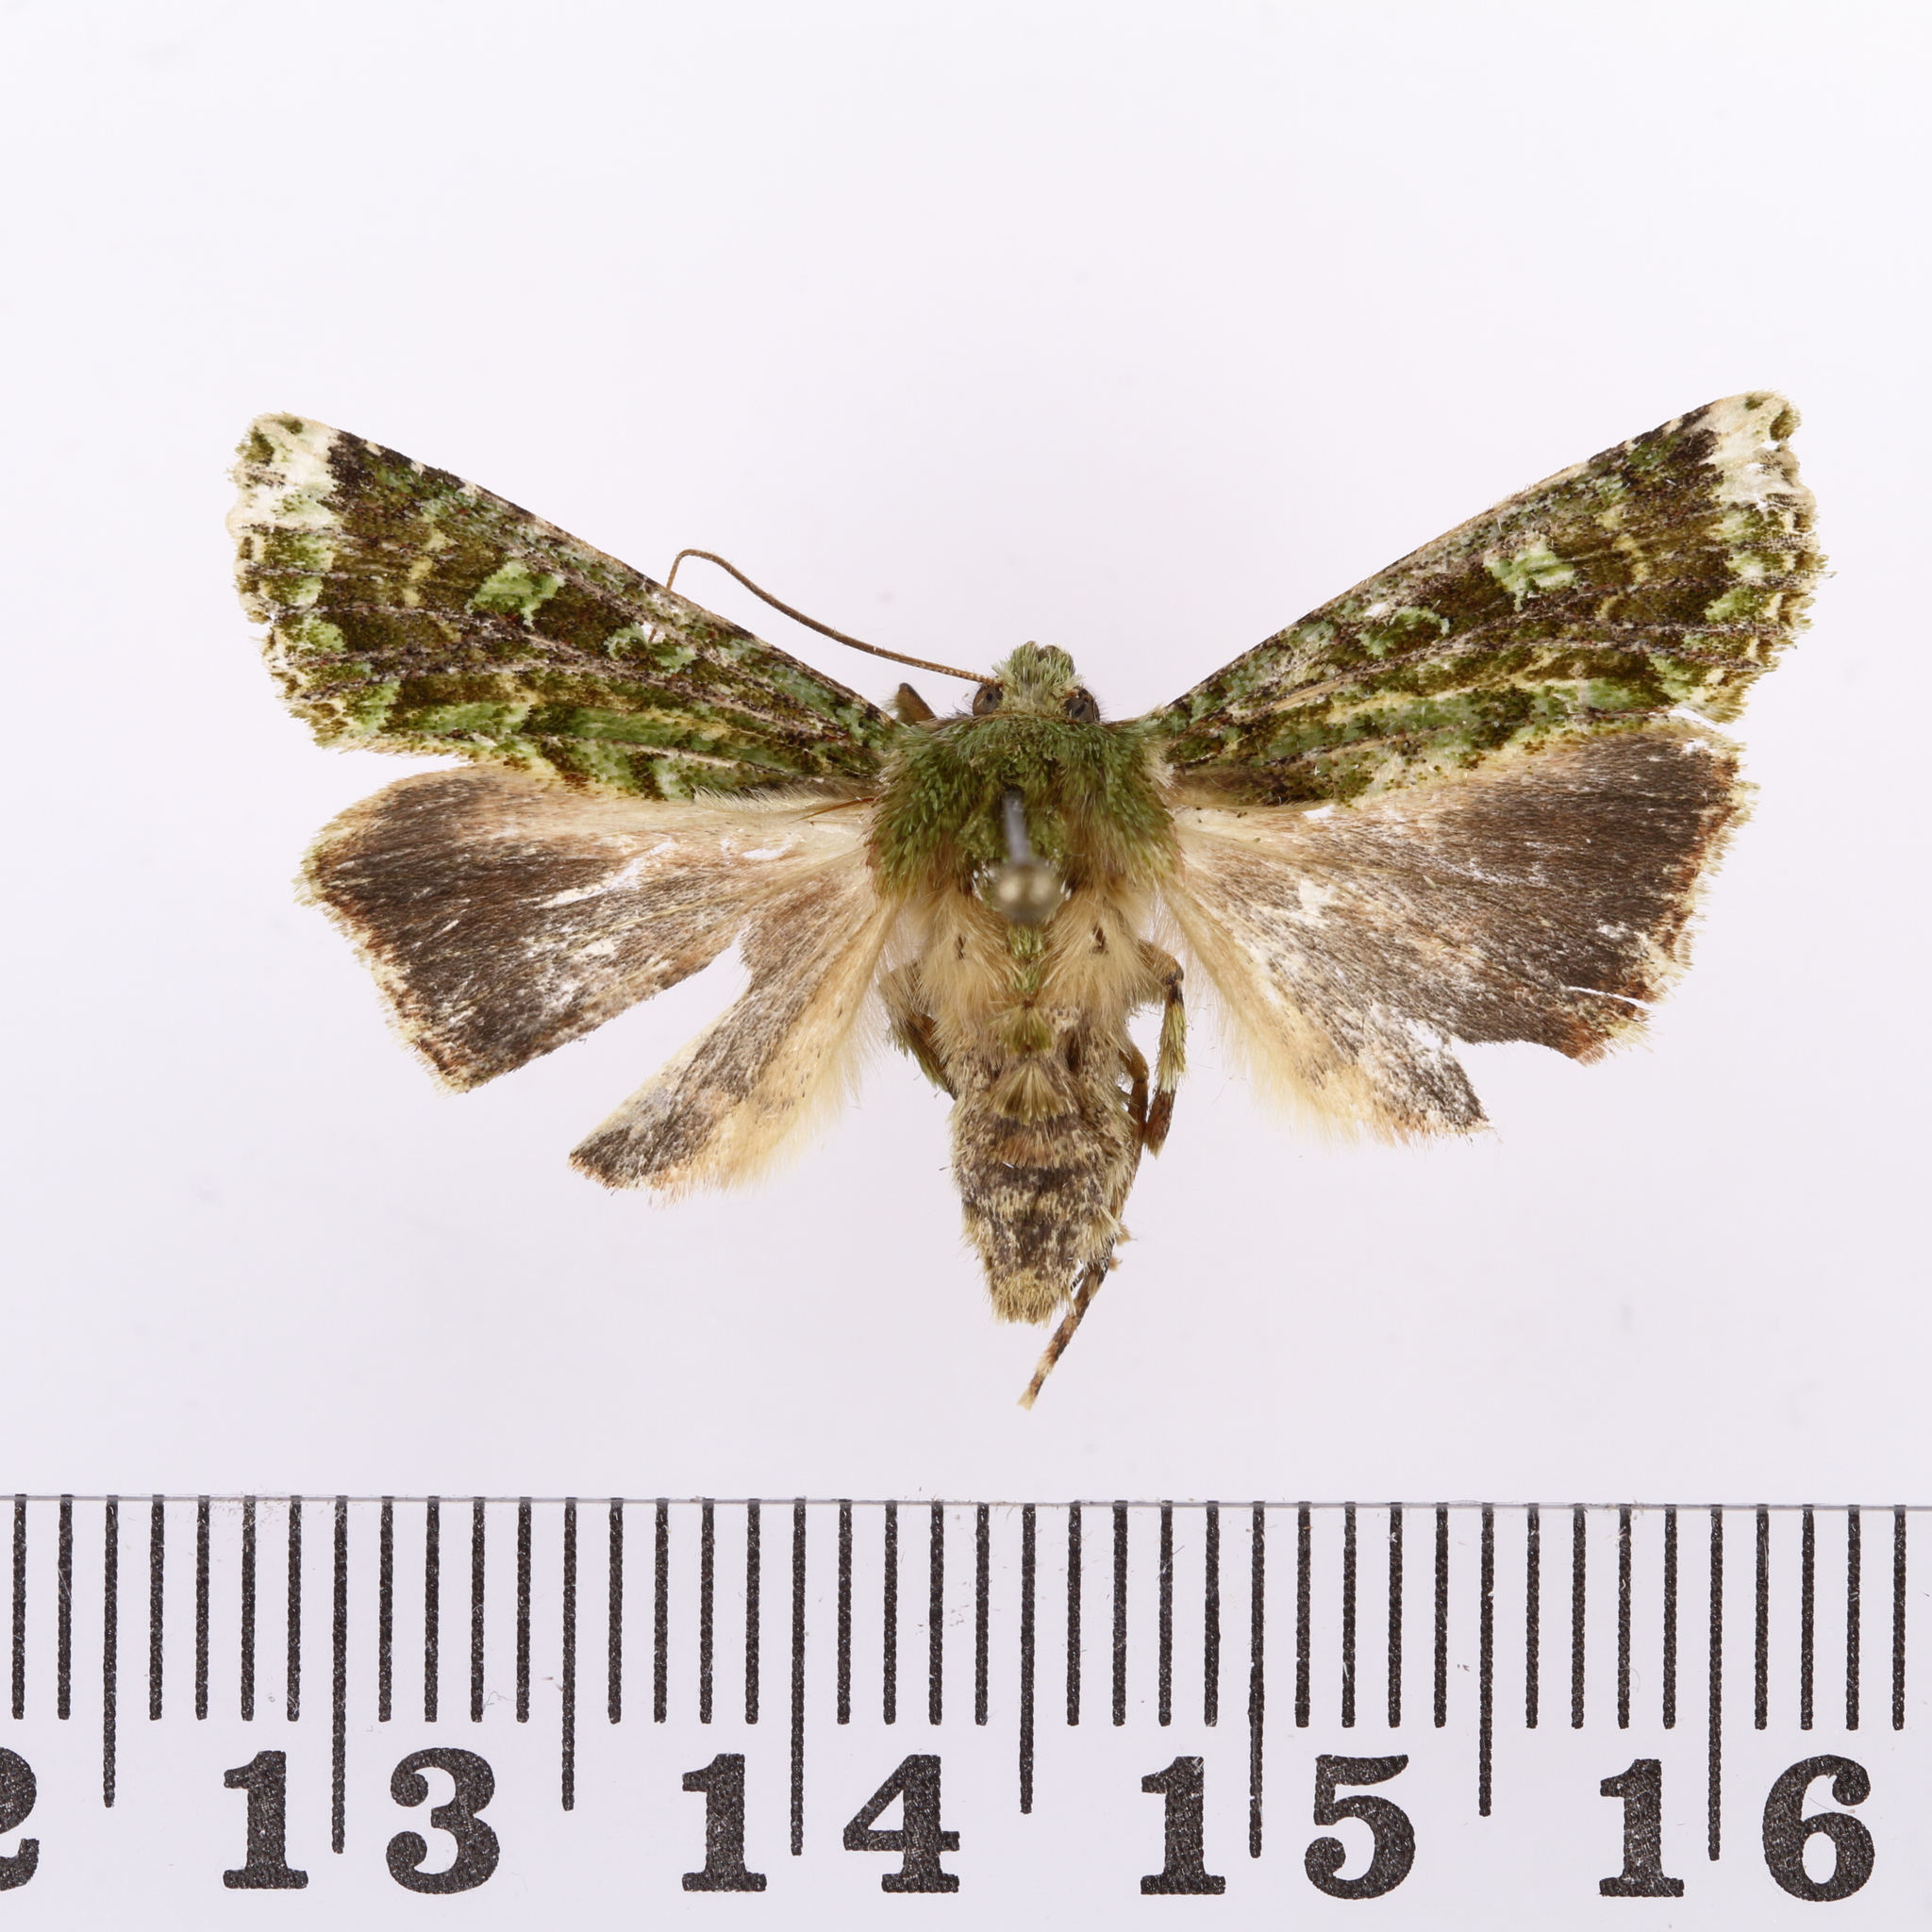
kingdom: Animalia
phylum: Arthropoda
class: Insecta
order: Lepidoptera
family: Noctuidae
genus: Feredayia
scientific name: Feredayia grammosa
